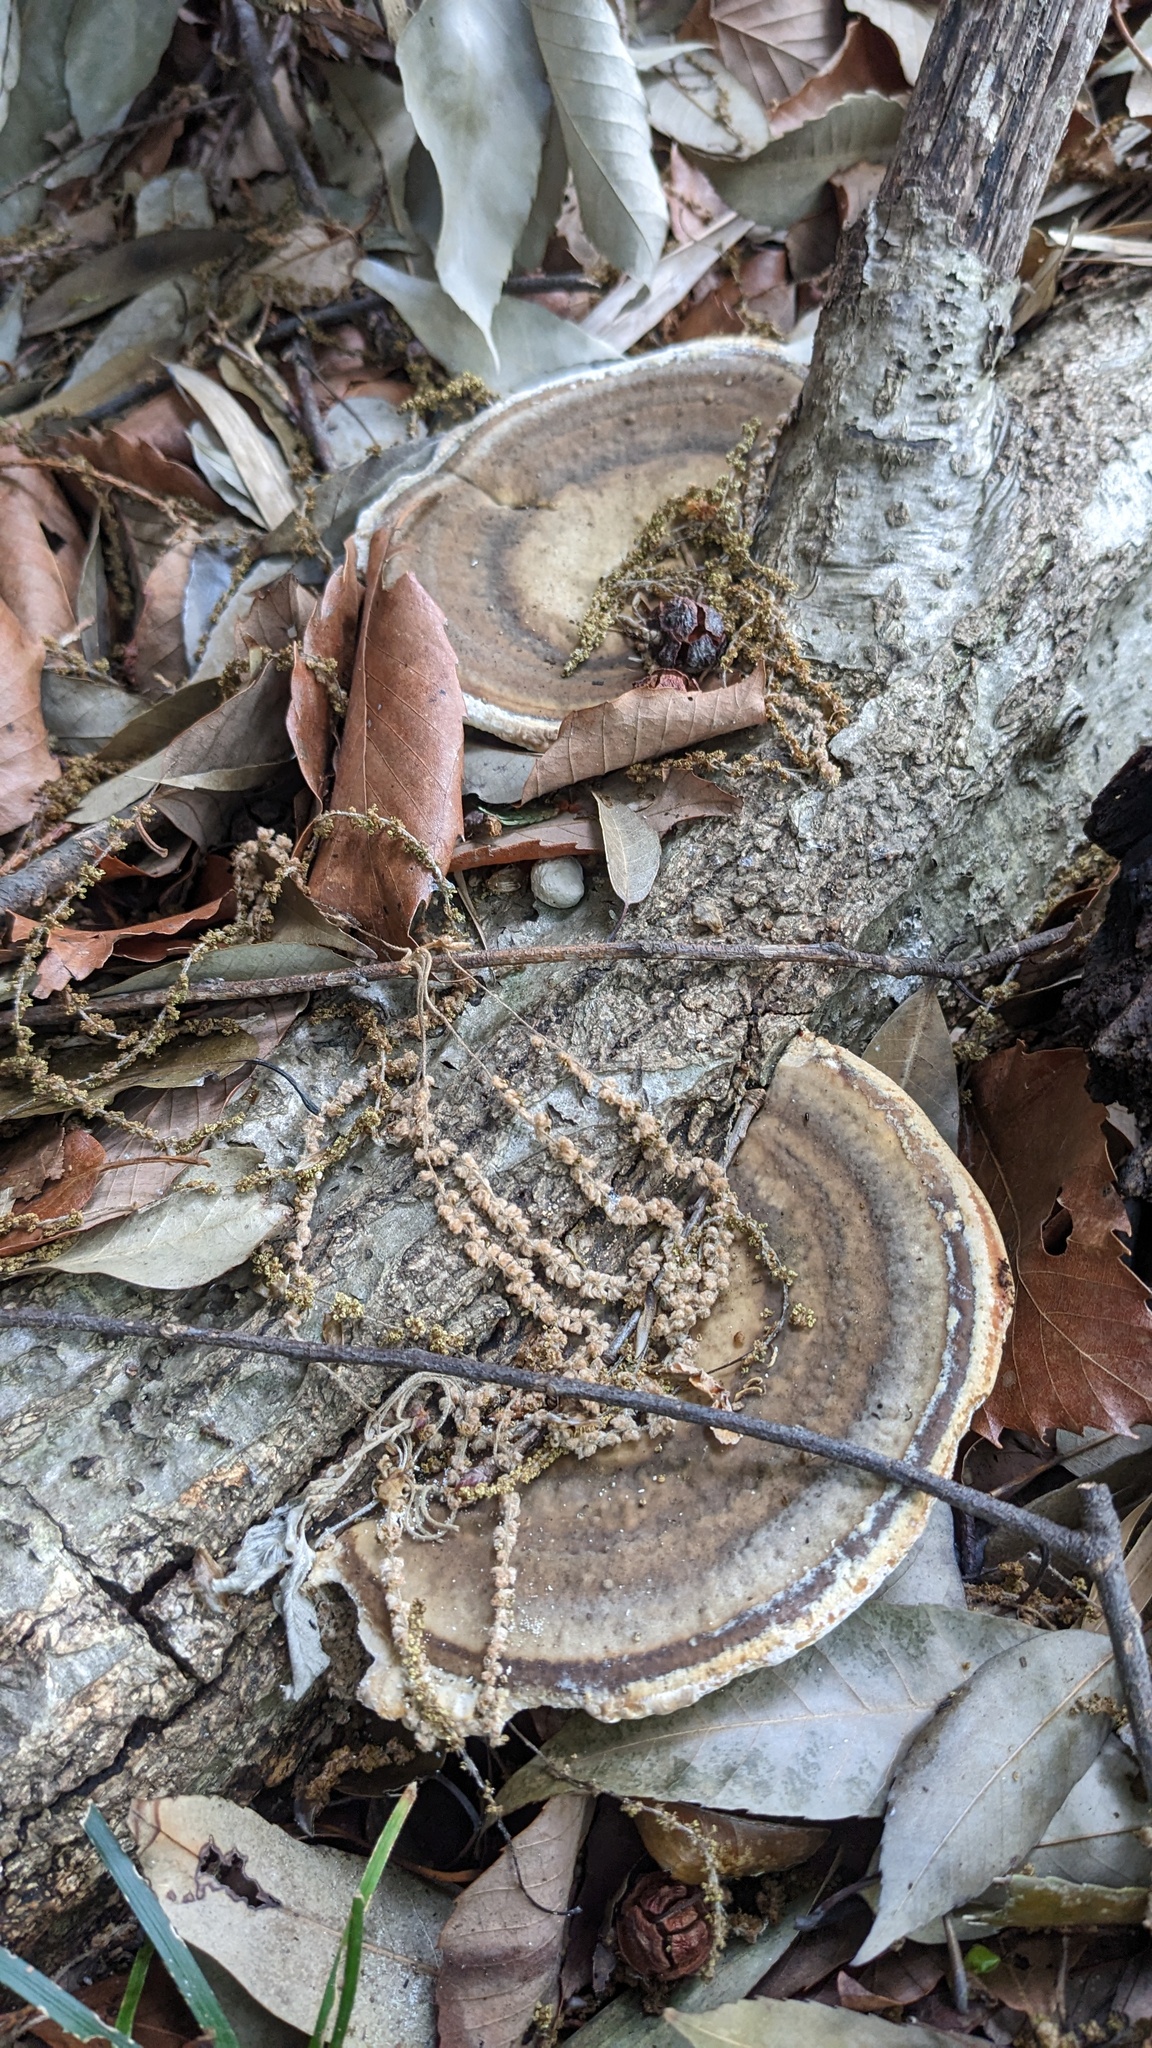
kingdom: Fungi
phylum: Basidiomycota
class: Agaricomycetes
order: Polyporales
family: Polyporaceae
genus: Trametes
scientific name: Trametes orientalis
